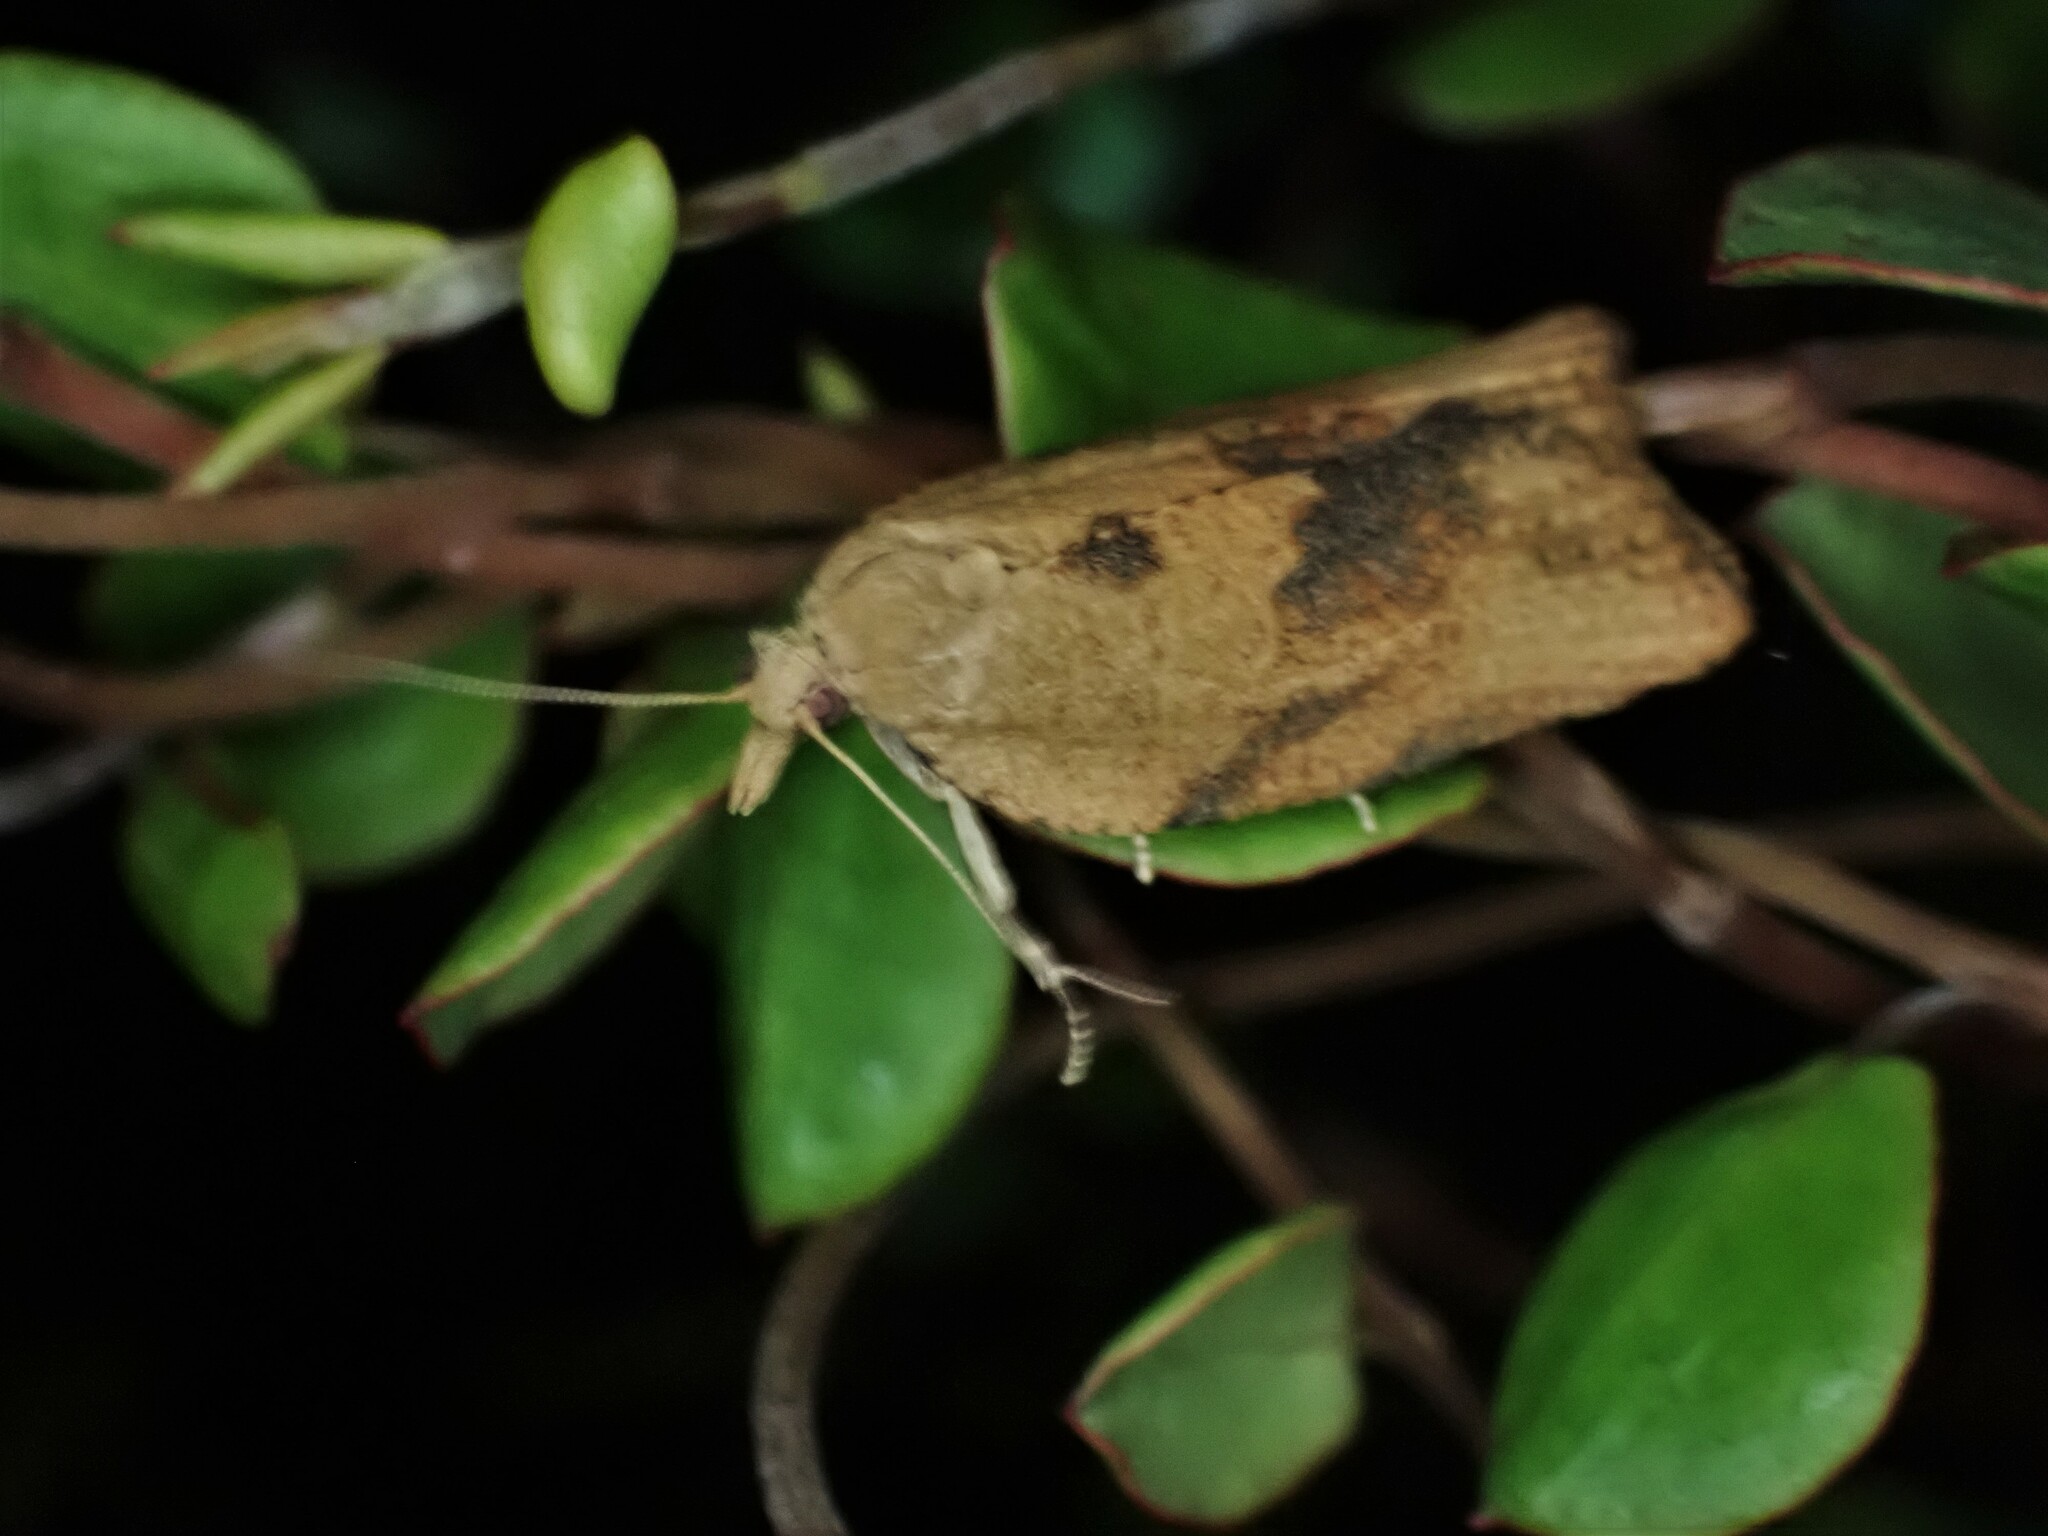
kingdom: Animalia
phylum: Arthropoda
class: Insecta
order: Lepidoptera
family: Tortricidae
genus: Epiphyas
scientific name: Epiphyas postvittana
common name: Light brown apple moth
